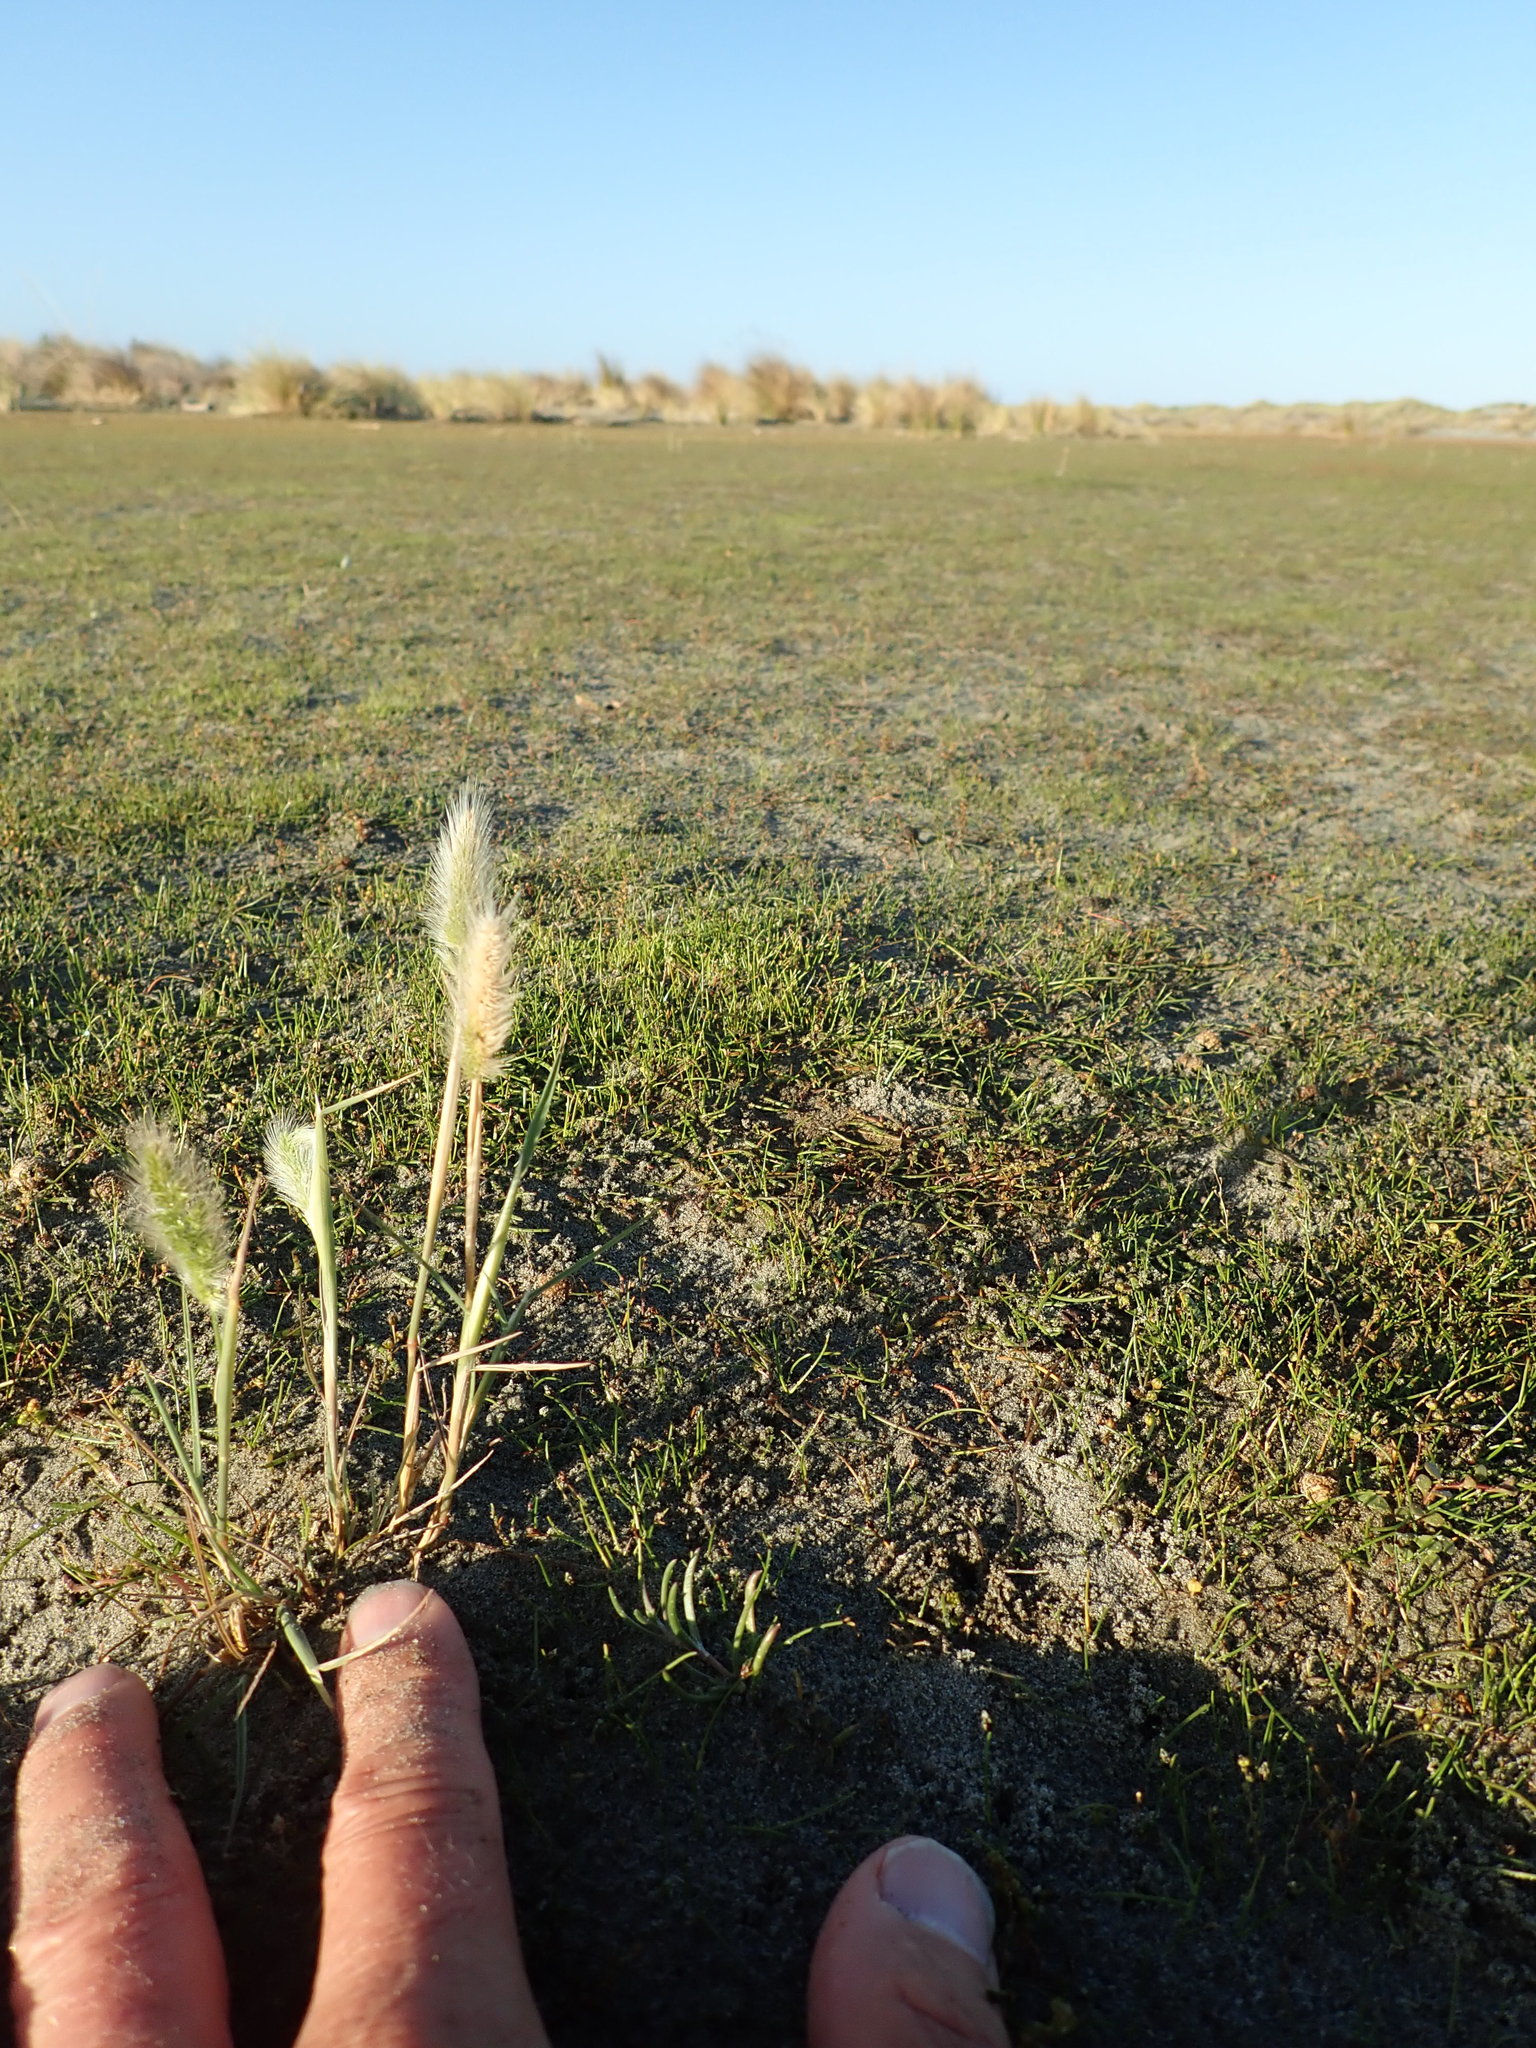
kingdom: Plantae
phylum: Tracheophyta
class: Liliopsida
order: Poales
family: Poaceae
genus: Polypogon
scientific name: Polypogon monspeliensis
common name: Annual rabbitsfoot grass
